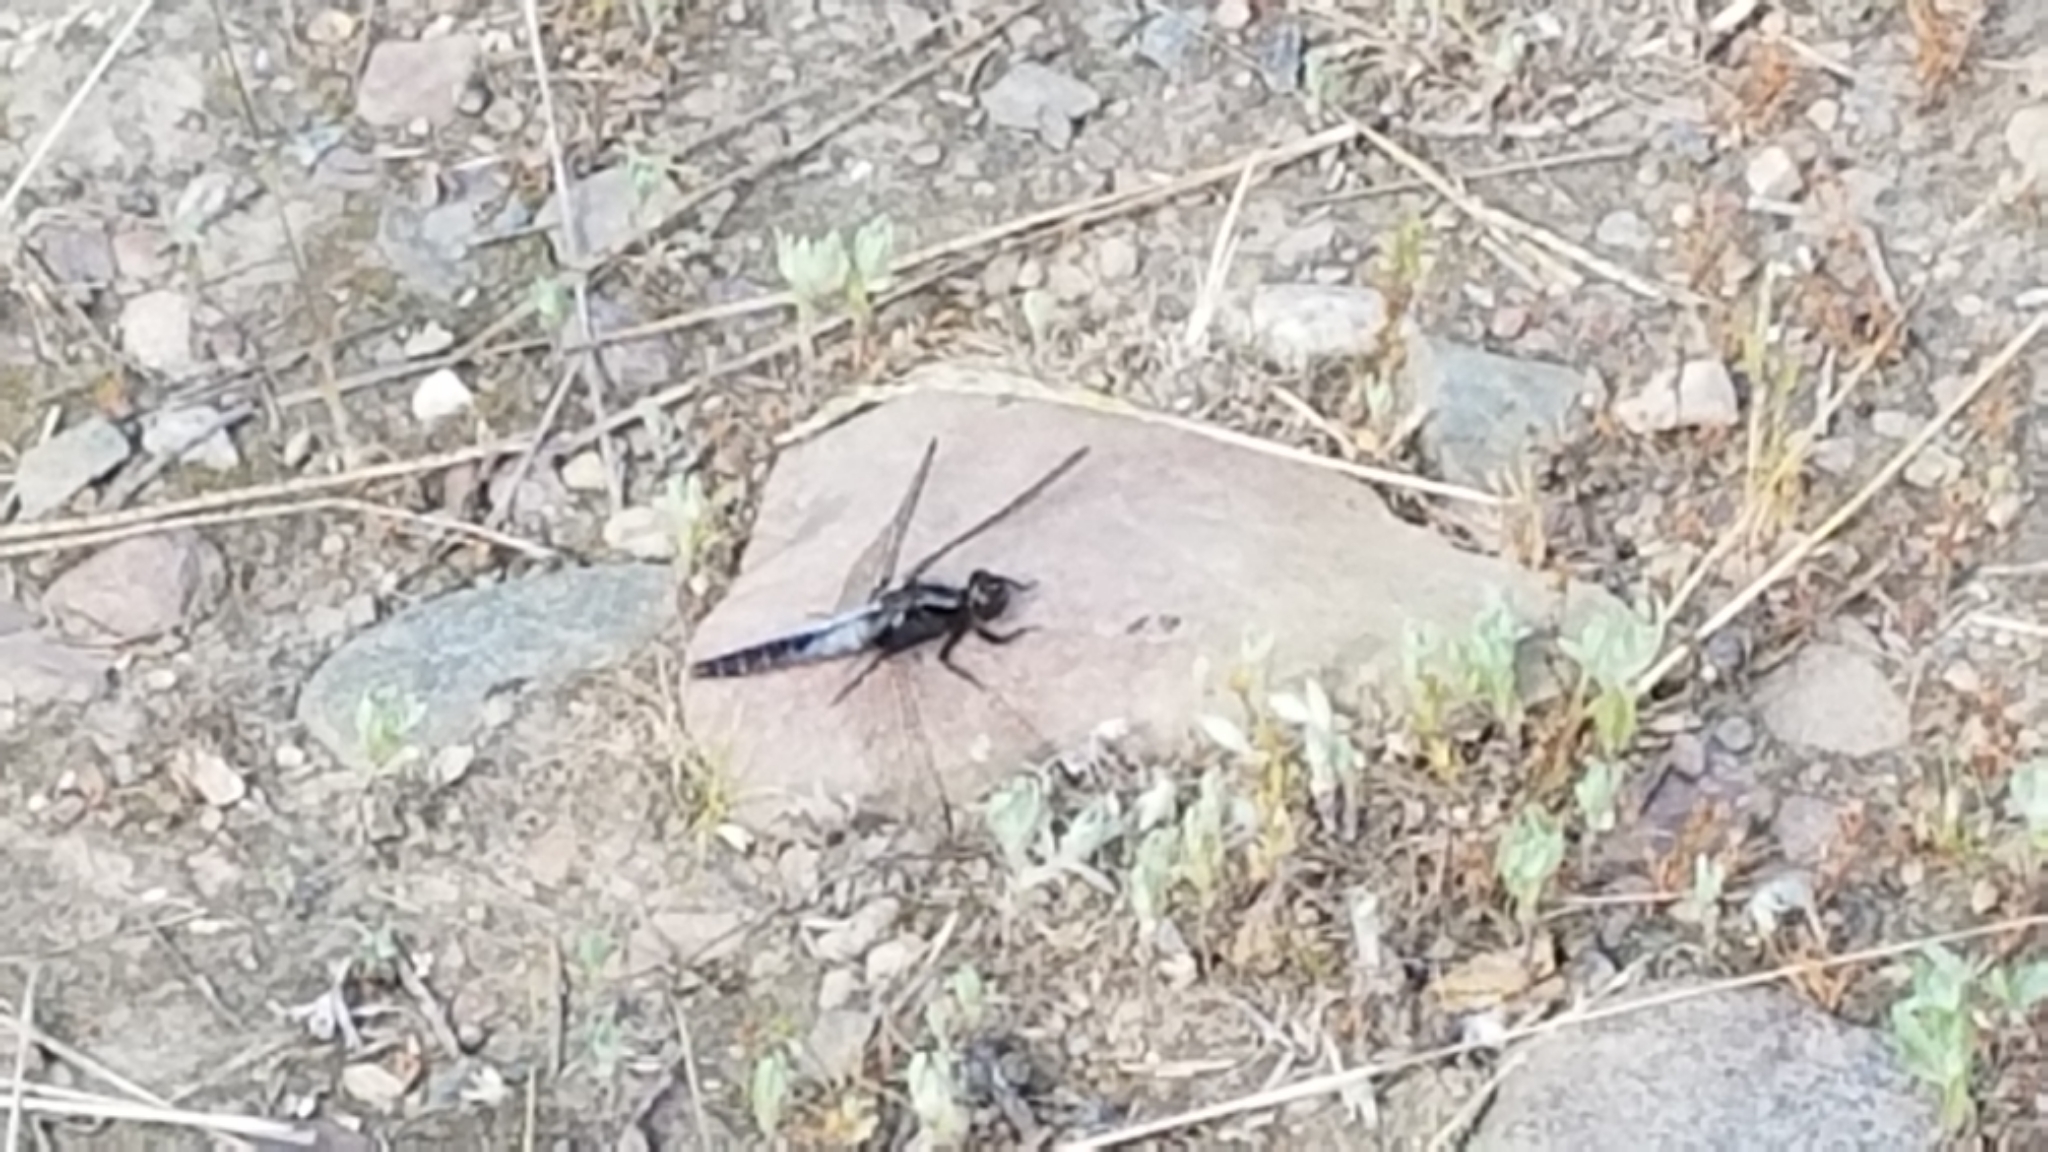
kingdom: Animalia
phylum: Arthropoda
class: Insecta
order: Odonata
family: Libellulidae
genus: Ladona
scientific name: Ladona julia
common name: Chalk-fronted corporal
